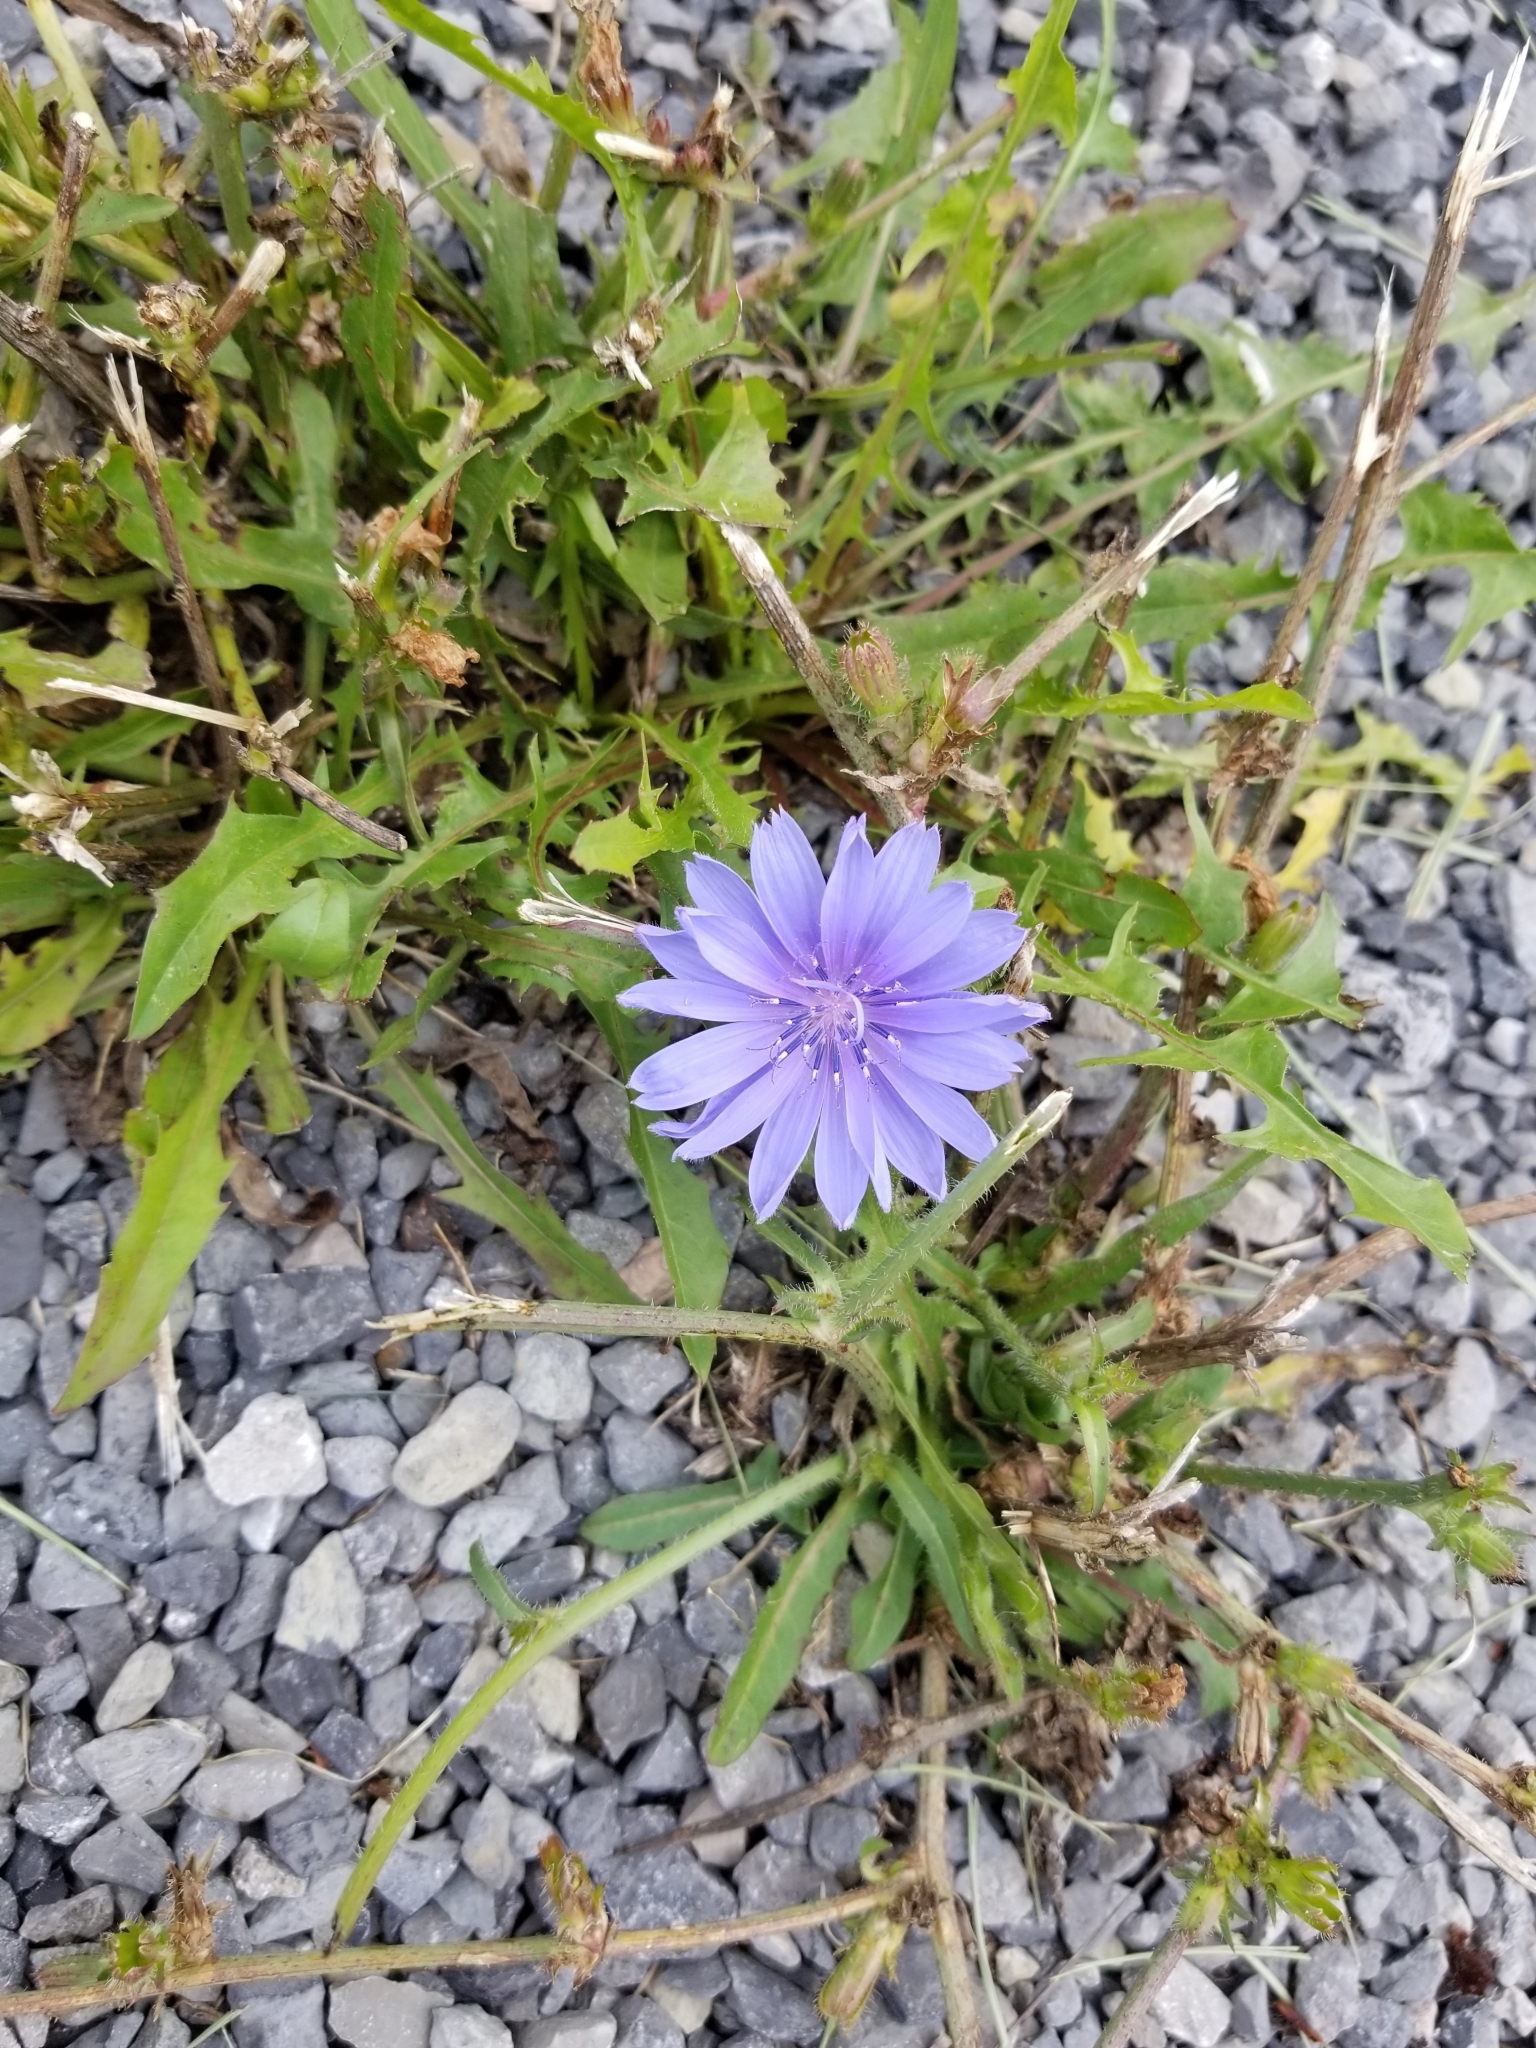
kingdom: Plantae
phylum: Tracheophyta
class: Magnoliopsida
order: Asterales
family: Asteraceae
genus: Cichorium
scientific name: Cichorium intybus
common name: Chicory
